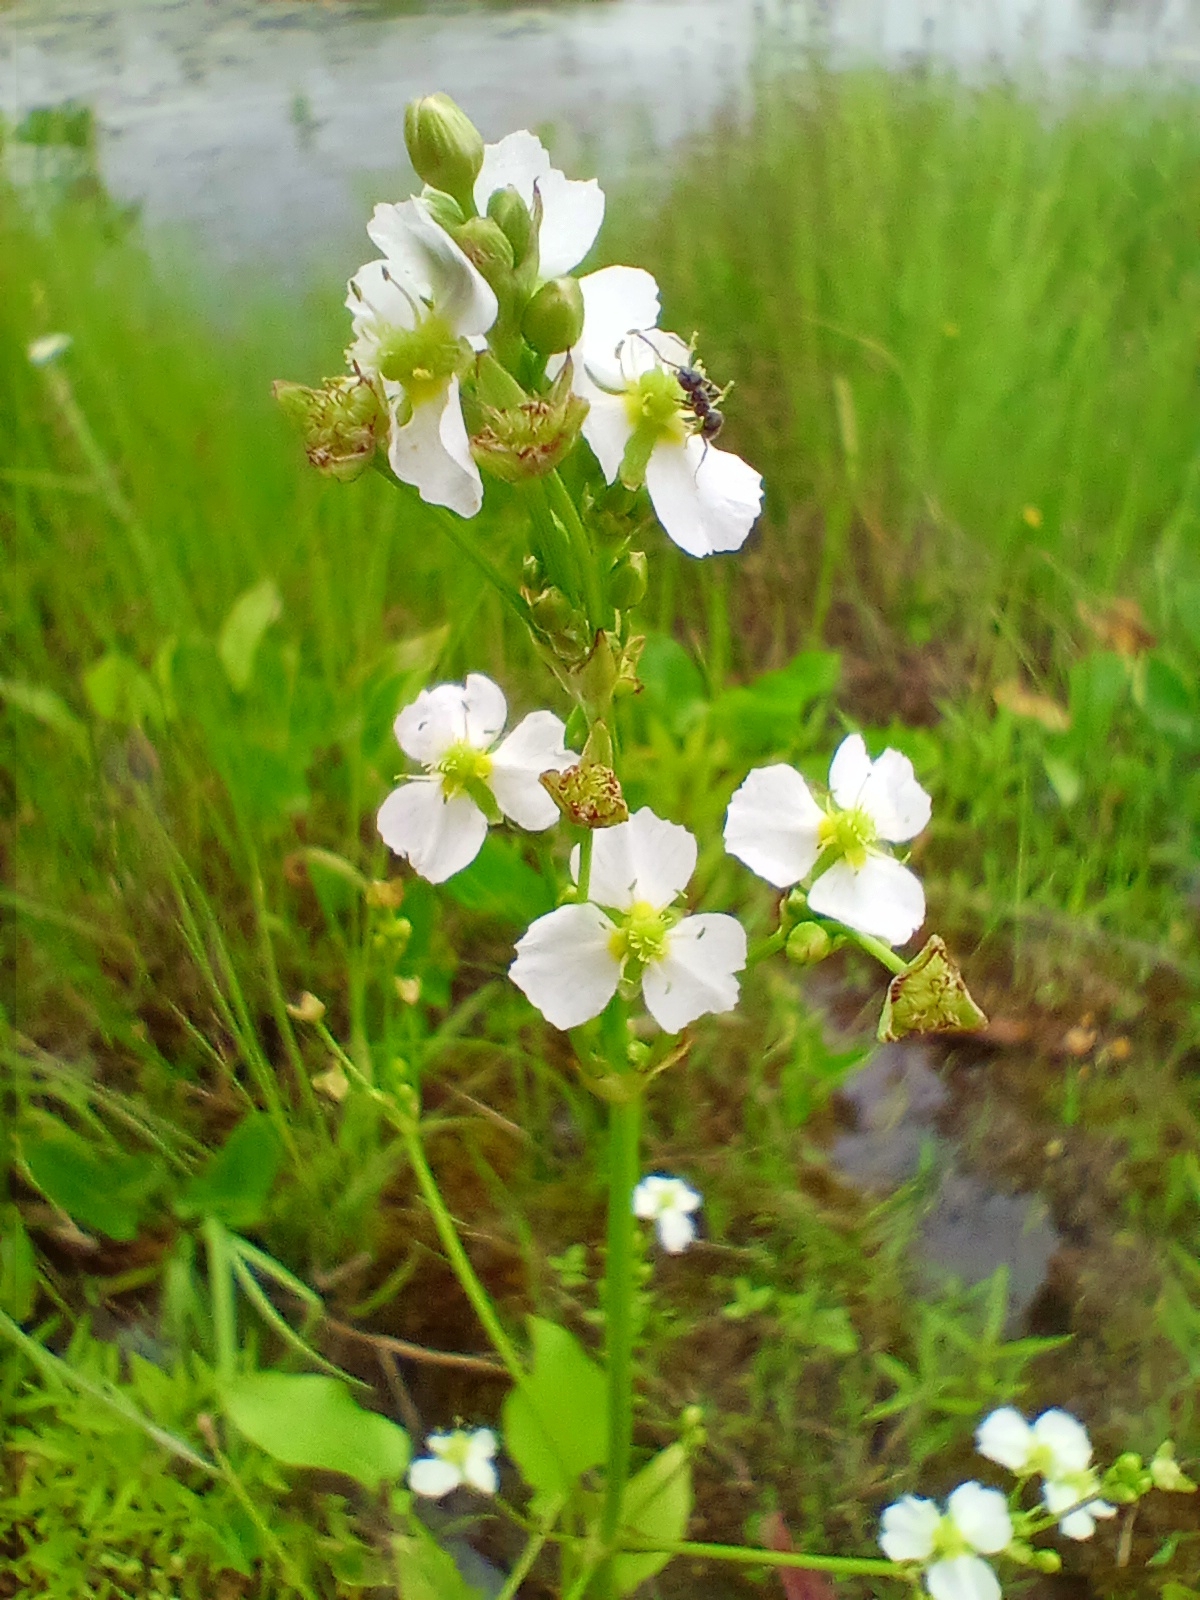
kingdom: Plantae
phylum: Tracheophyta
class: Liliopsida
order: Alismatales
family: Alismataceae
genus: Alisma
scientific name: Alisma plantago-aquatica
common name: Water-plantain
